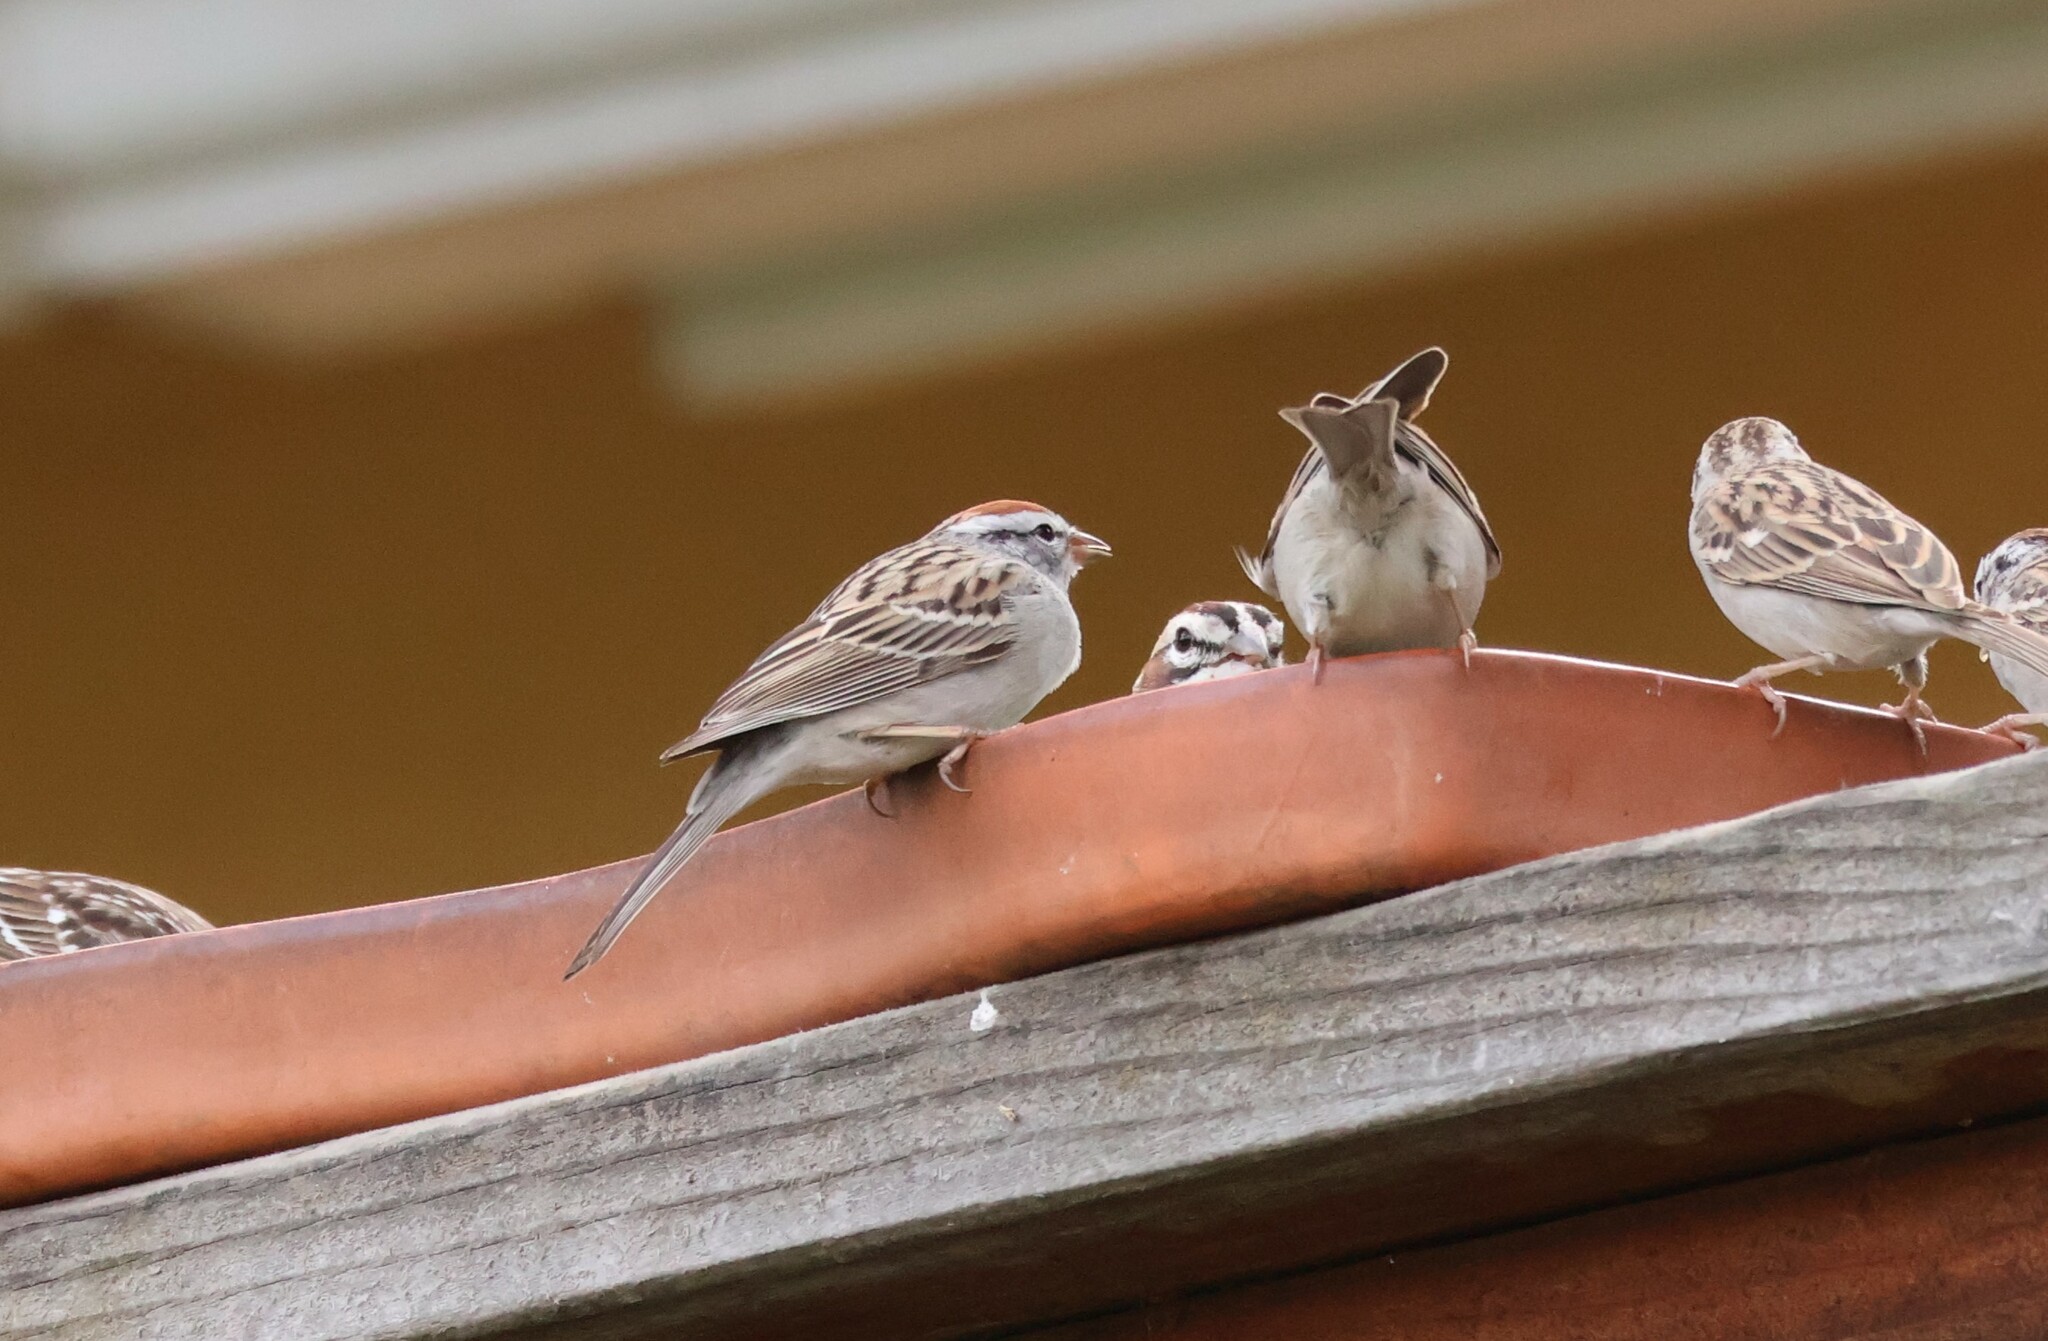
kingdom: Animalia
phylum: Chordata
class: Aves
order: Passeriformes
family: Passerellidae
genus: Spizella
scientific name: Spizella passerina
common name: Chipping sparrow
